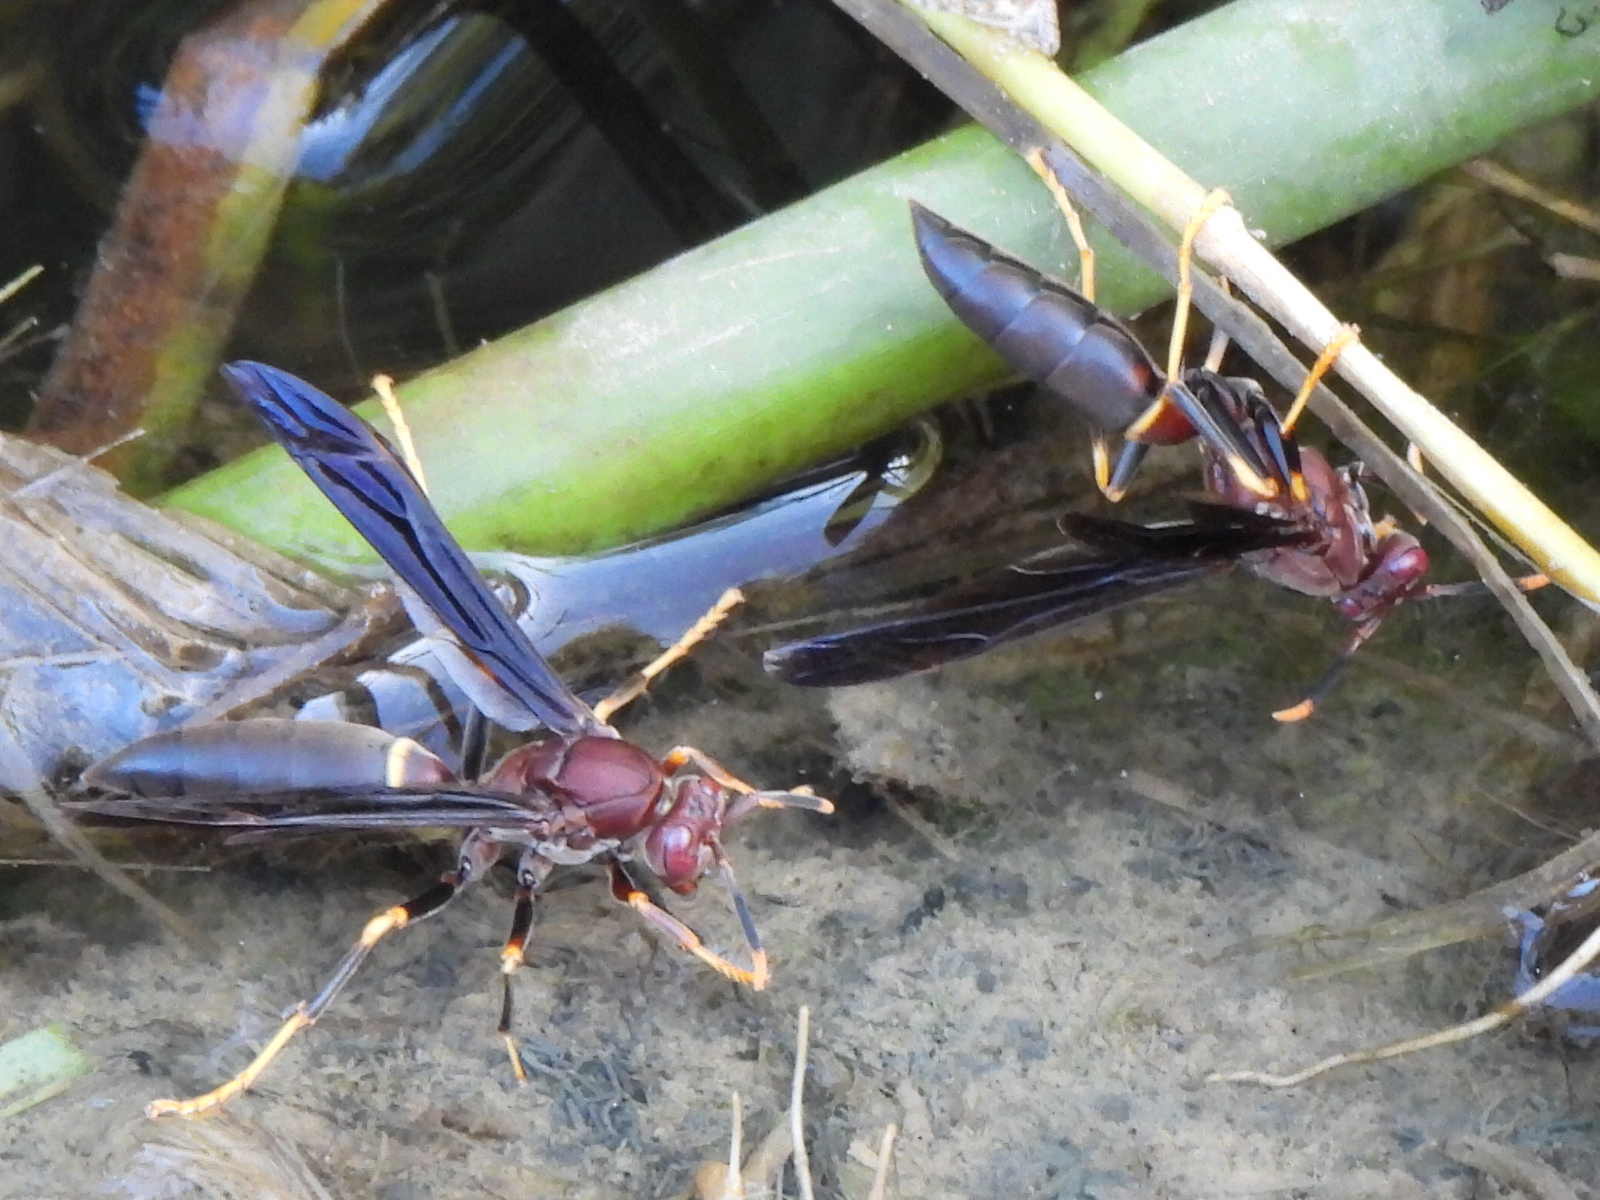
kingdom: Animalia
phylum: Arthropoda
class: Insecta
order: Hymenoptera
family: Eumenidae
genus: Polistes
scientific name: Polistes annularis
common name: Ringed paper wasp
